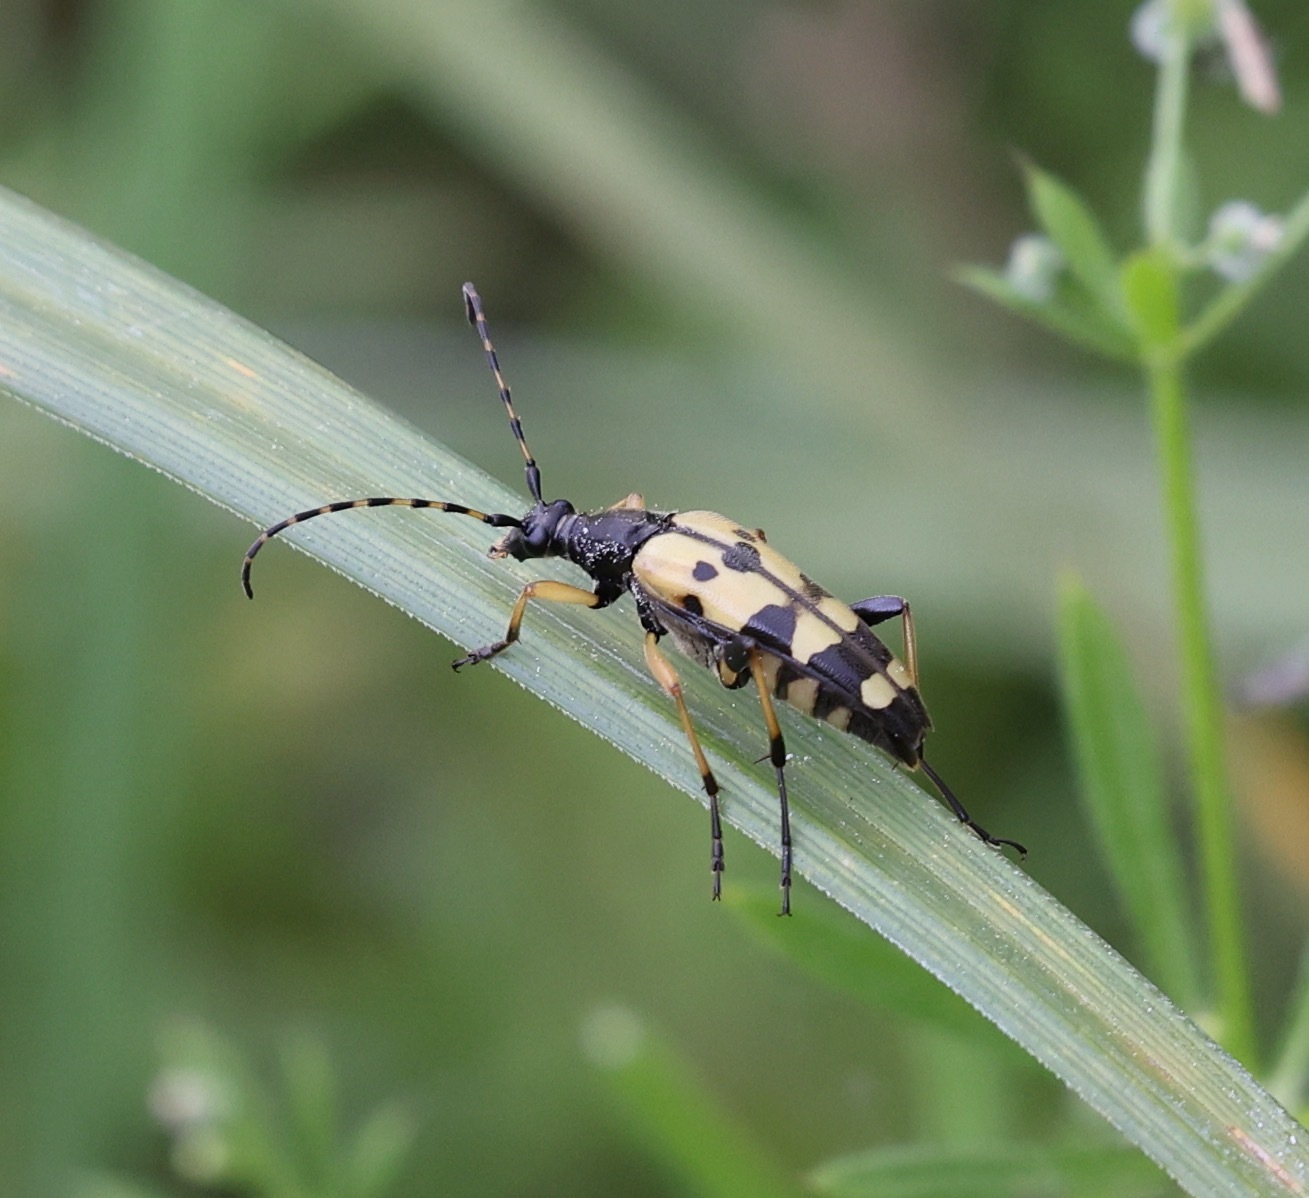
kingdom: Animalia
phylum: Arthropoda
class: Insecta
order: Coleoptera
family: Cerambycidae
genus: Rutpela
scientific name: Rutpela maculata
